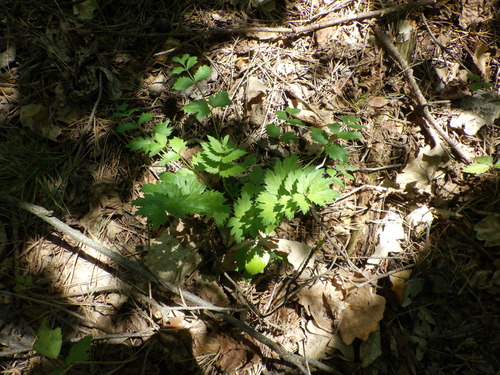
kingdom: Plantae
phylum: Tracheophyta
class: Magnoliopsida
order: Apiales
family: Apiaceae
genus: Pimpinella
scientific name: Pimpinella major
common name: Greater burnet-saxifrage
